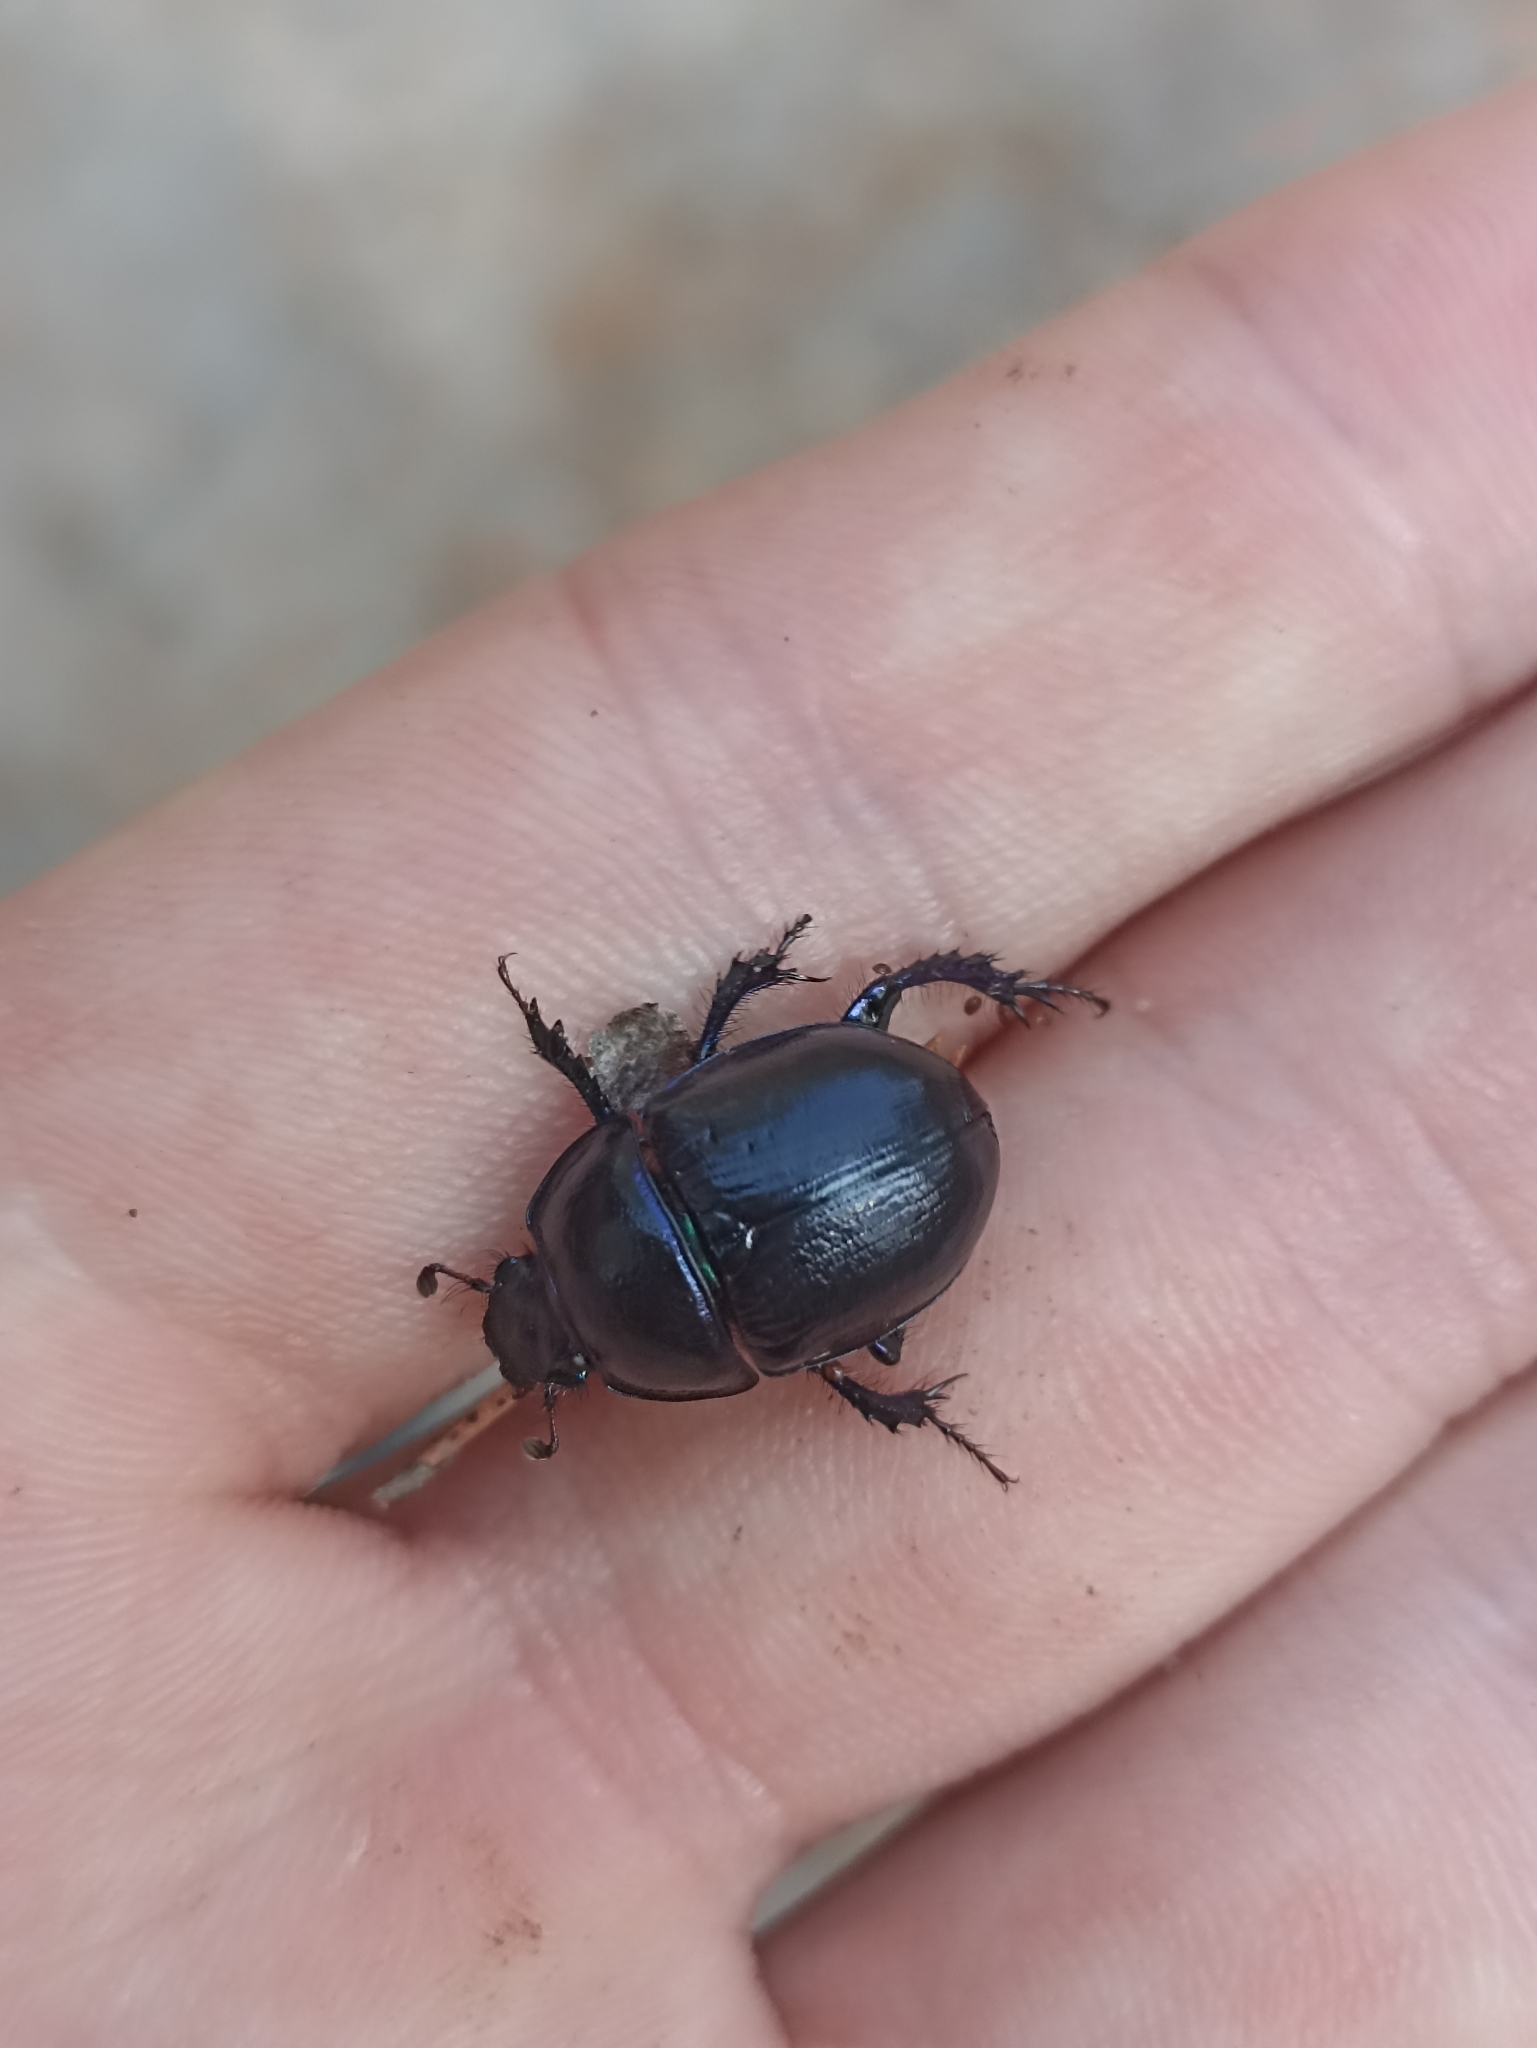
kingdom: Animalia
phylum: Arthropoda
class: Insecta
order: Coleoptera
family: Geotrupidae
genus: Anoplotrupes
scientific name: Anoplotrupes stercorosus
